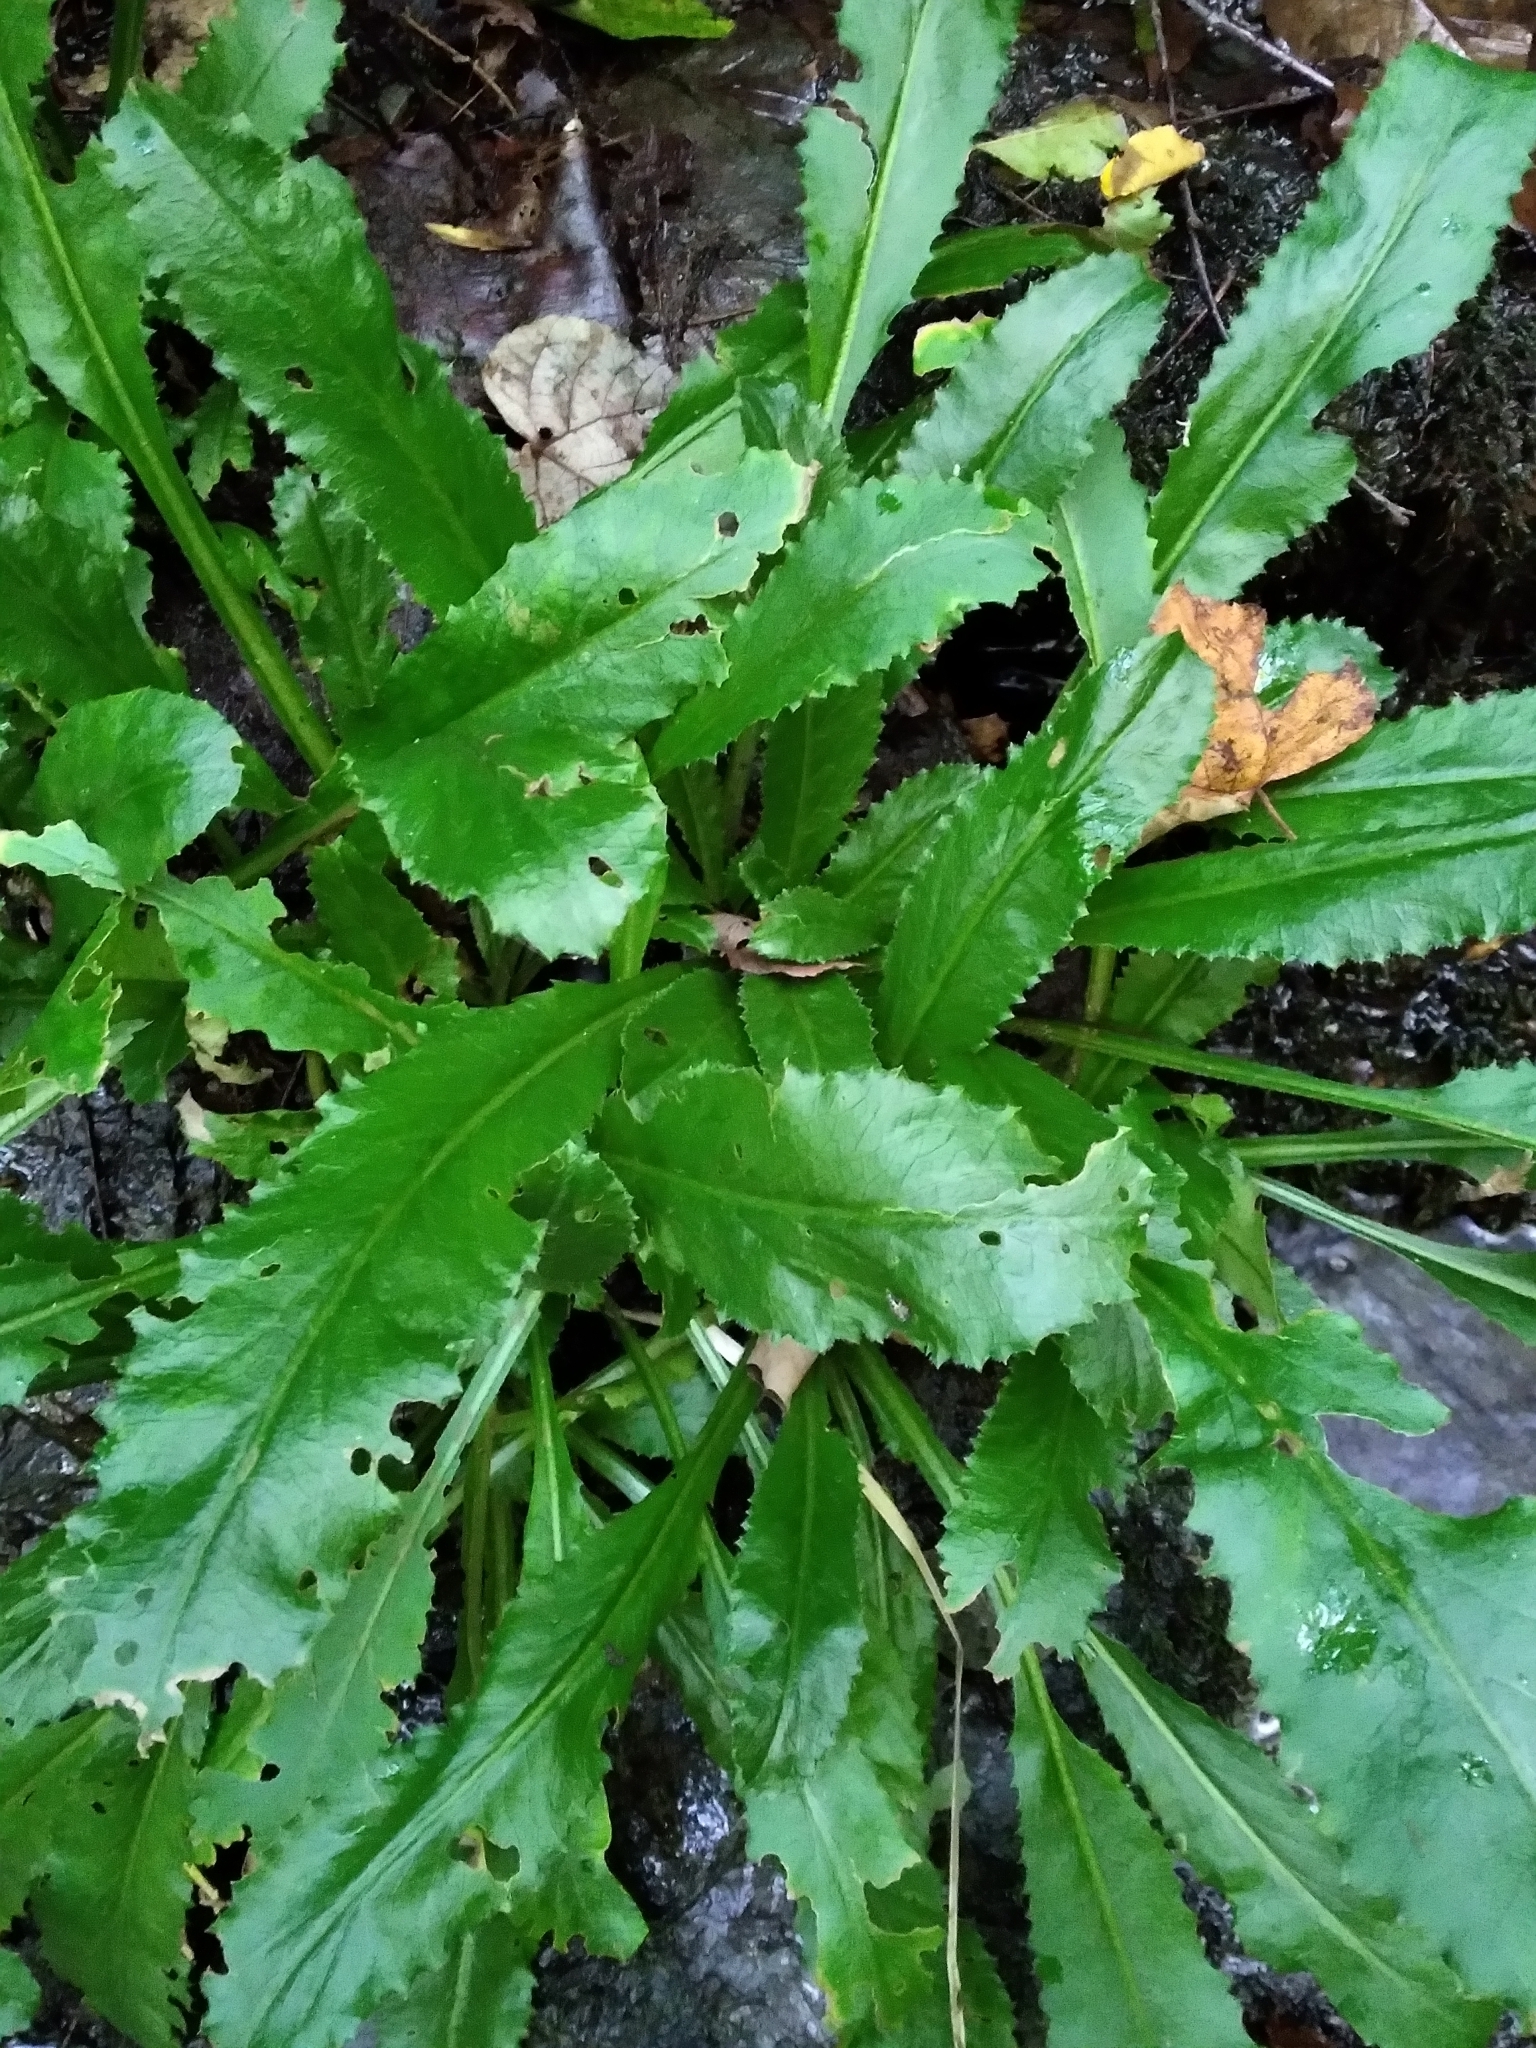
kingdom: Plantae
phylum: Tracheophyta
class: Magnoliopsida
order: Saxifragales
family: Saxifragaceae
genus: Micranthes
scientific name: Micranthes micranthidifolia
